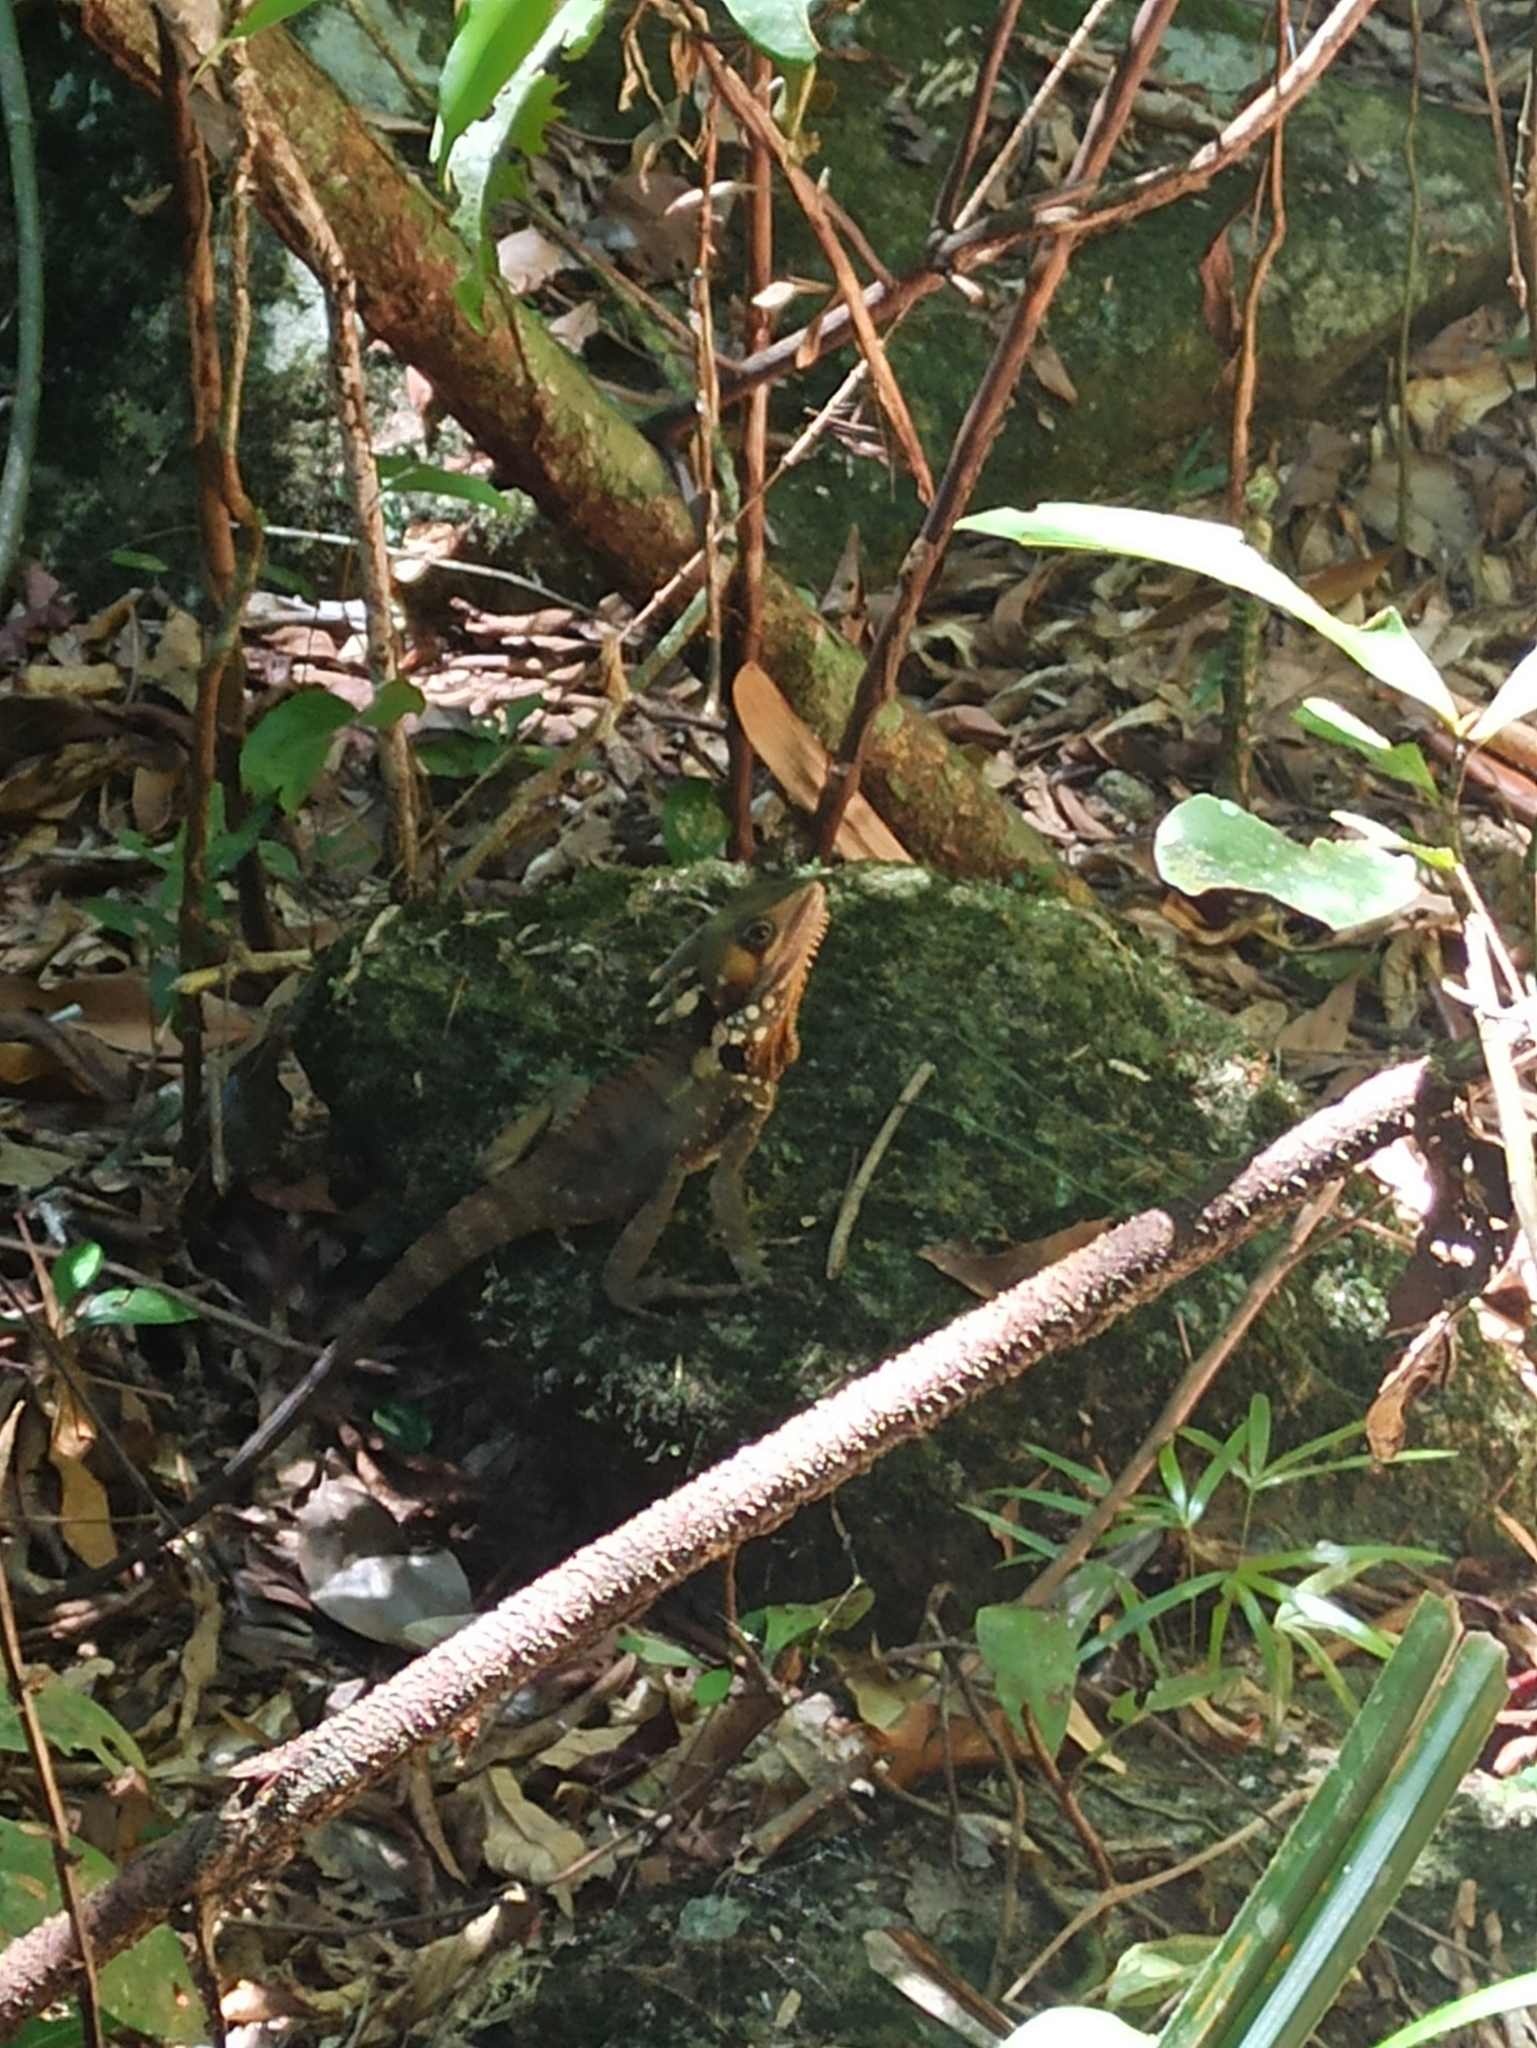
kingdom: Animalia
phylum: Chordata
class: Squamata
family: Agamidae
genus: Lophosaurus
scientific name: Lophosaurus boydii
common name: Boyd's forest dragon
